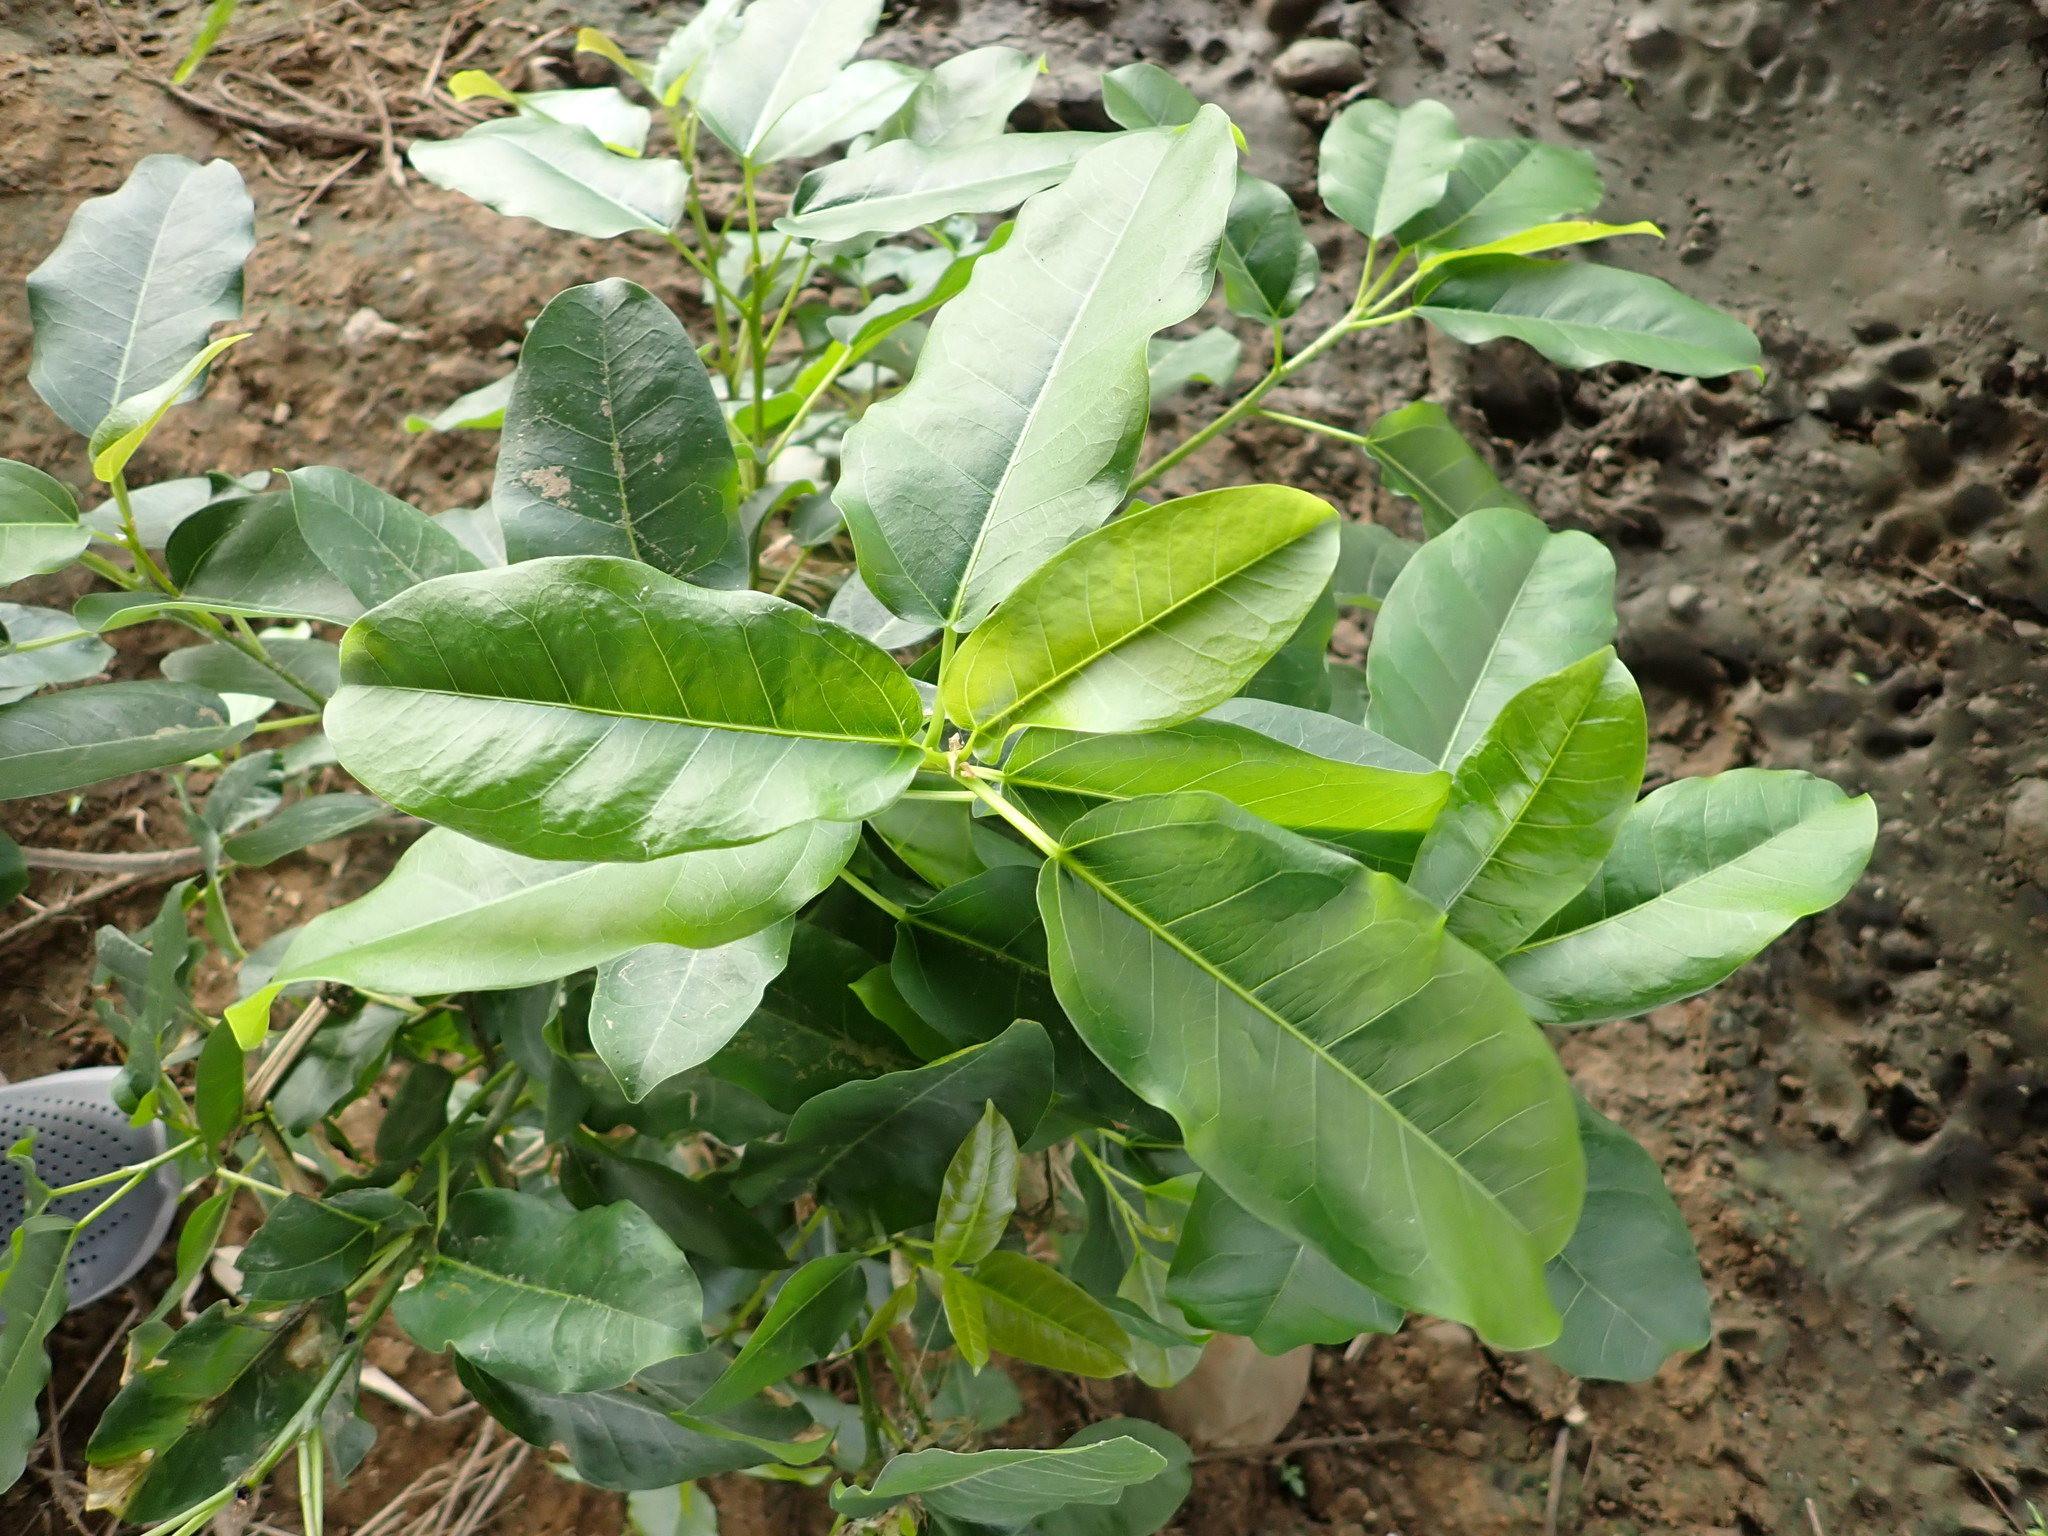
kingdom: Plantae
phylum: Tracheophyta
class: Magnoliopsida
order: Rosales
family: Moraceae
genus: Ficus
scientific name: Ficus subpisocarpa
